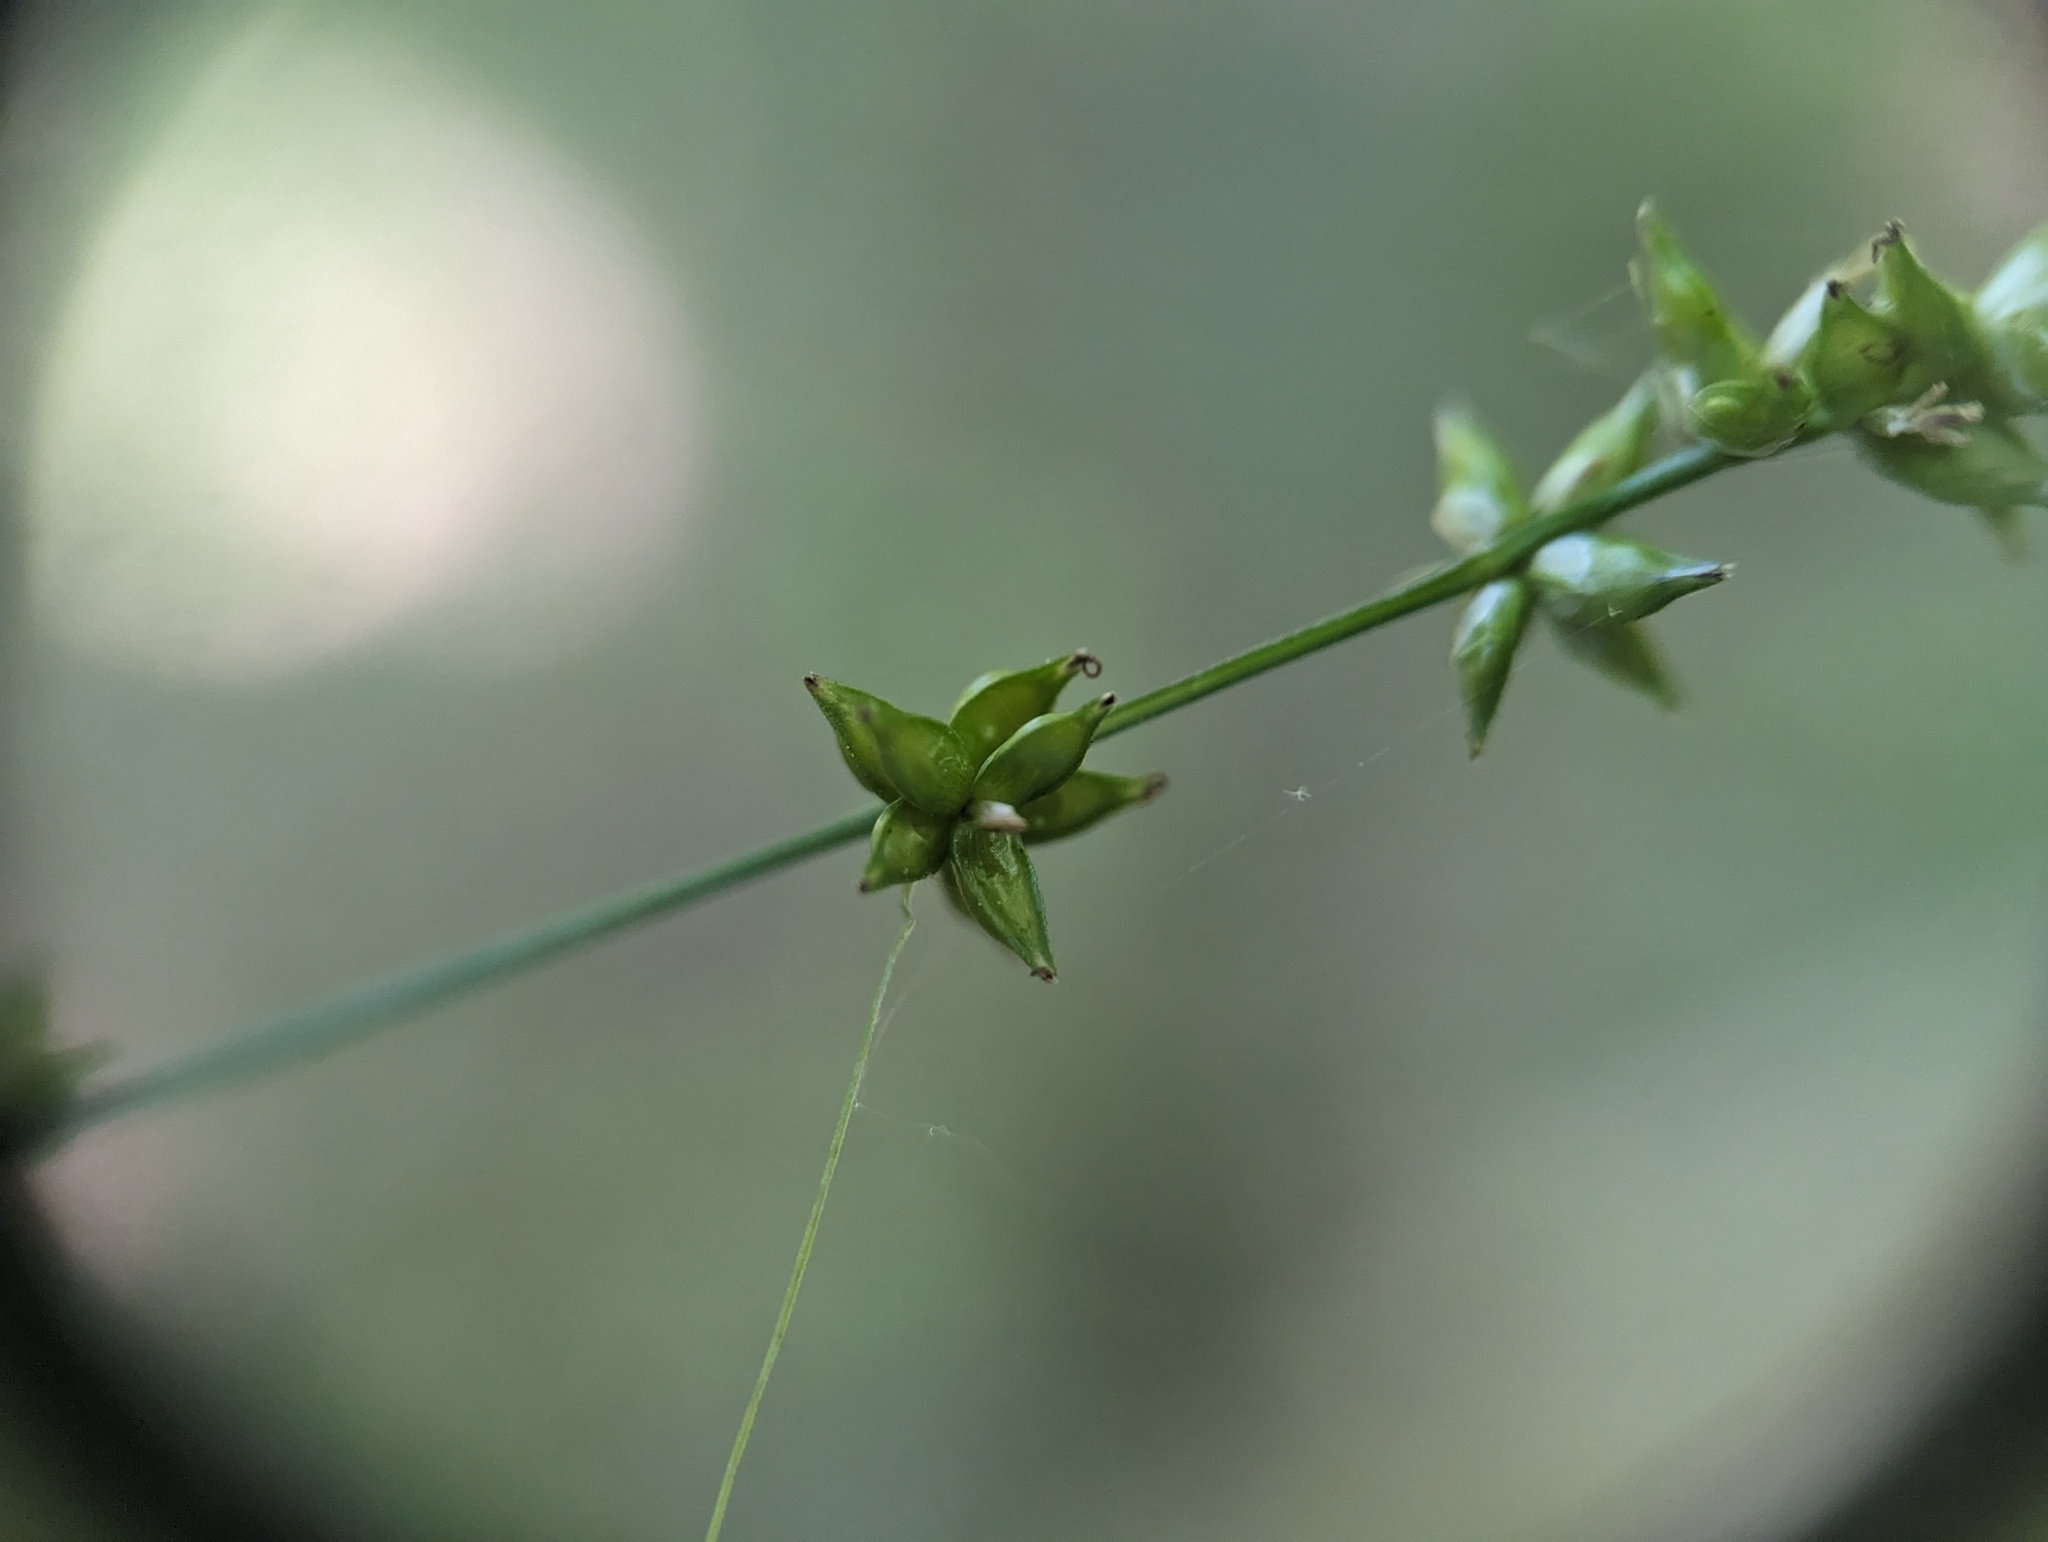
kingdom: Plantae
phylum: Tracheophyta
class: Liliopsida
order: Poales
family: Cyperaceae
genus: Carex
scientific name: Carex rosea
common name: Curly-styled wood sedge
